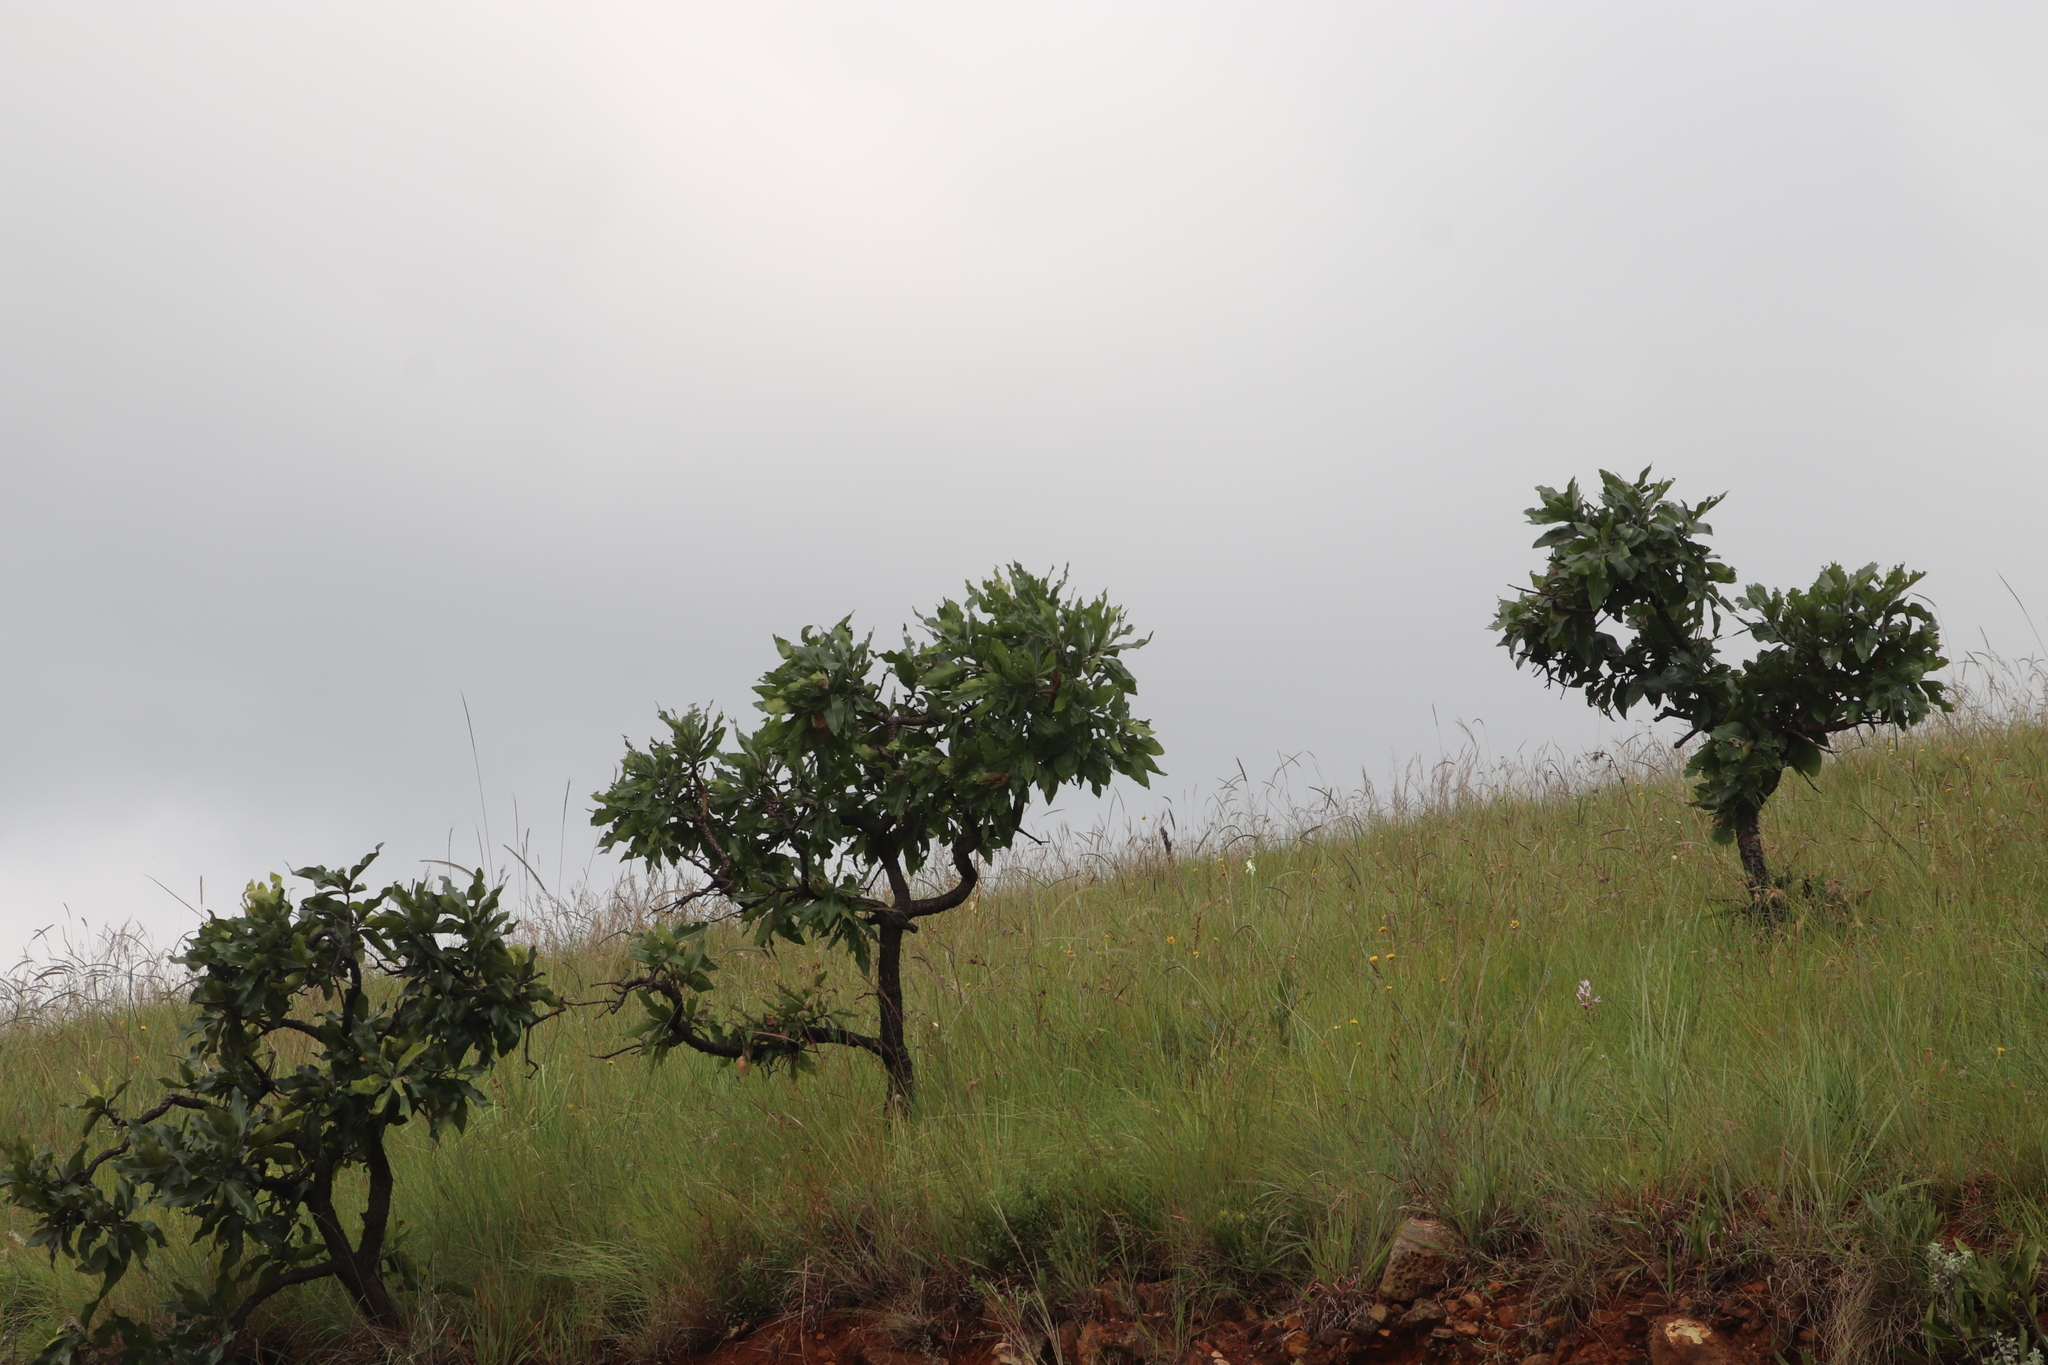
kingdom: Plantae
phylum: Tracheophyta
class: Magnoliopsida
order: Proteales
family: Proteaceae
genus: Faurea
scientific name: Faurea rochetiana
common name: Broad-leaved beech
